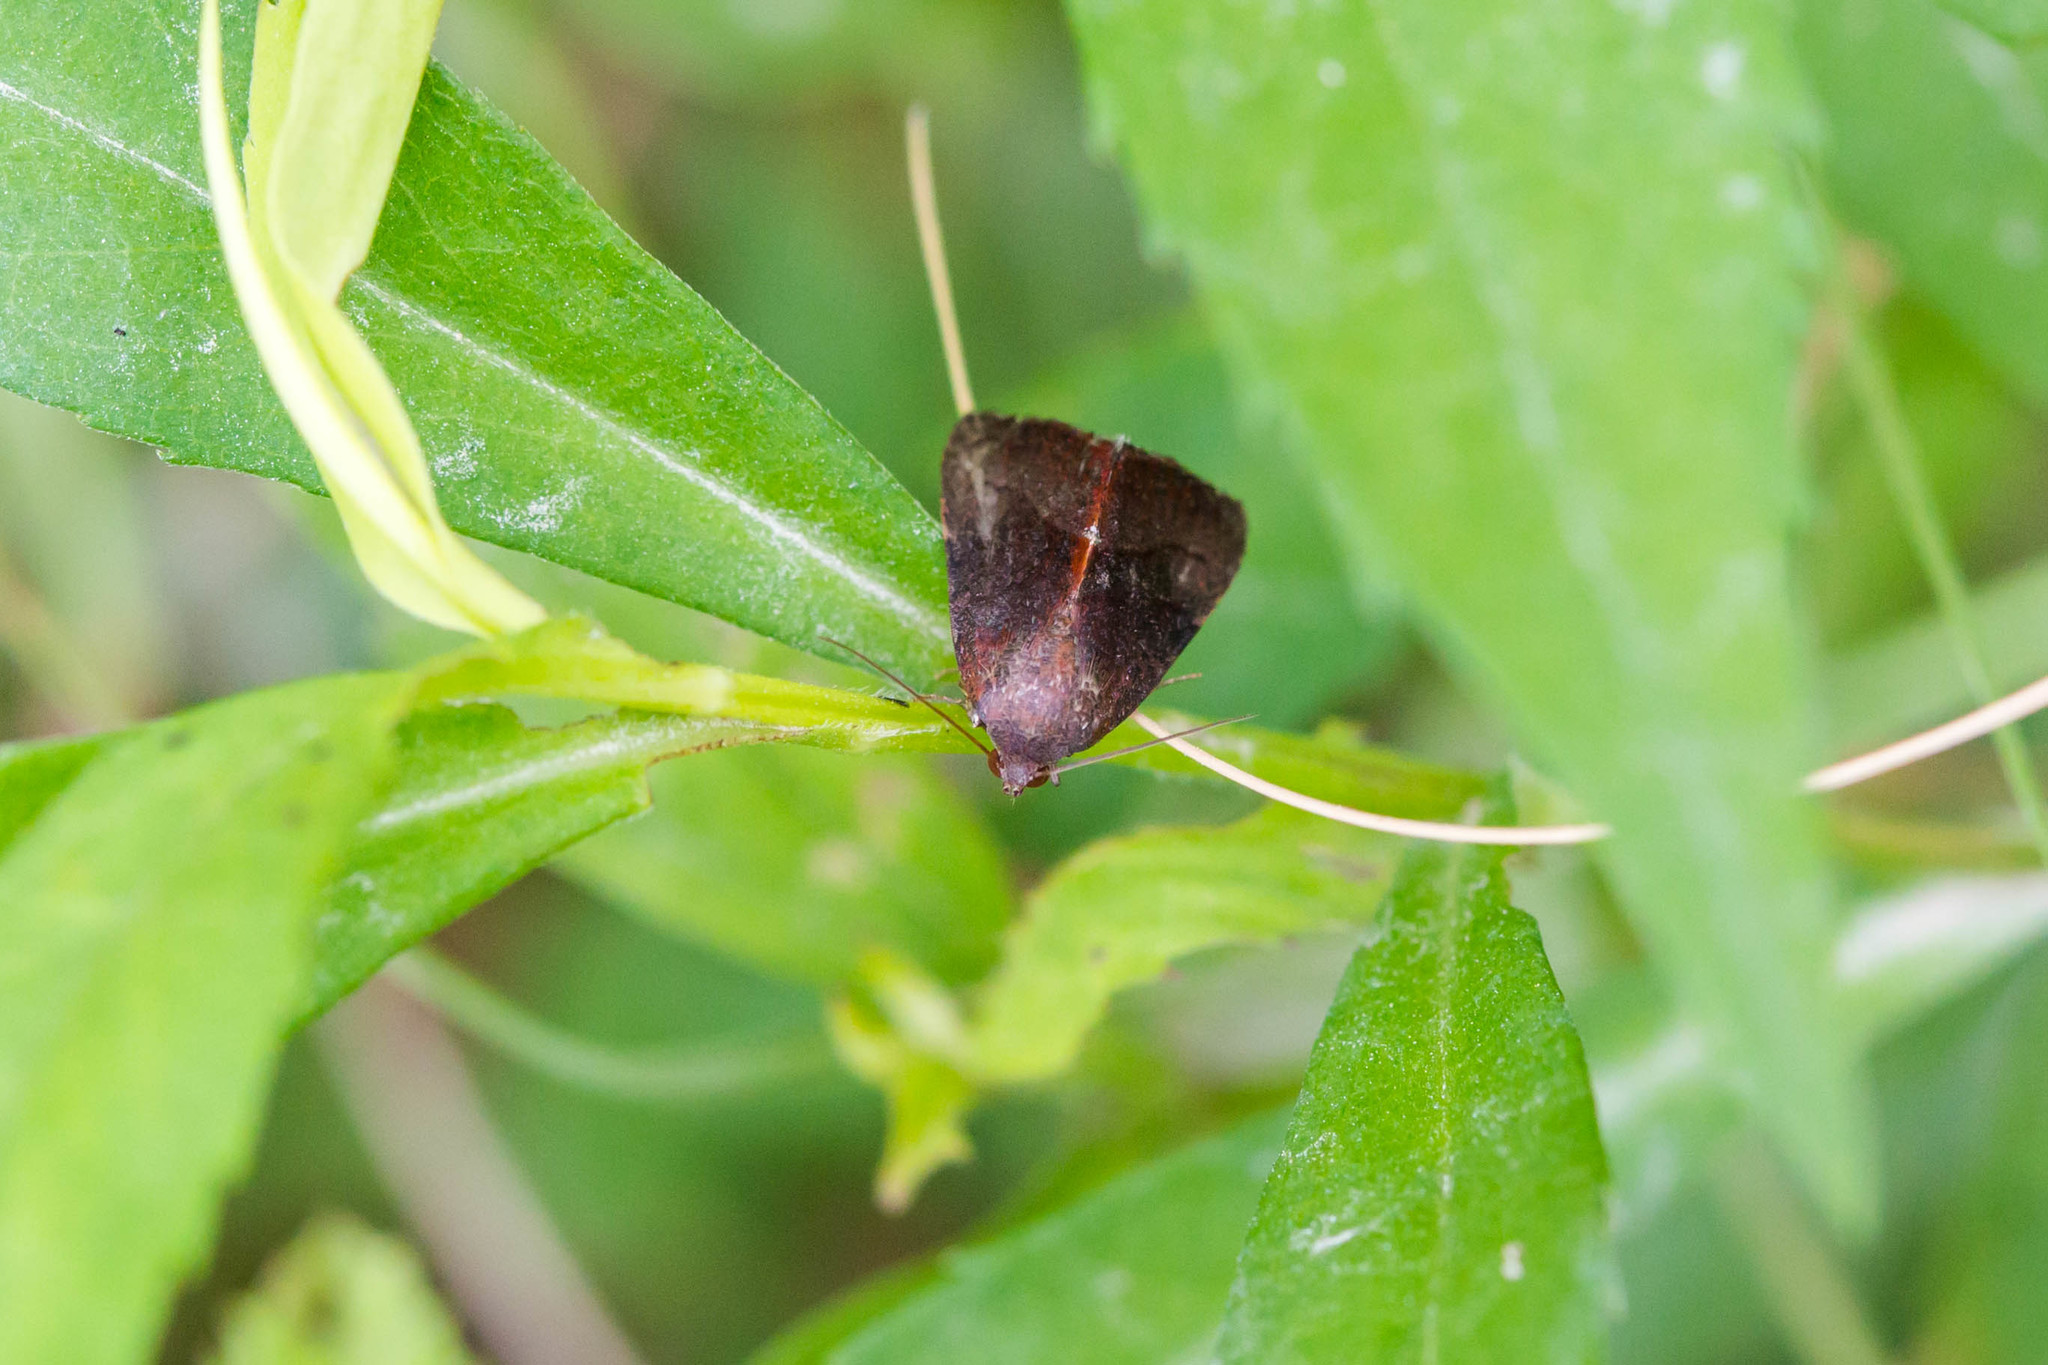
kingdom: Animalia
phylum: Arthropoda
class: Insecta
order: Lepidoptera
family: Noctuidae
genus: Galgula
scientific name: Galgula partita
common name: Wedgeling
